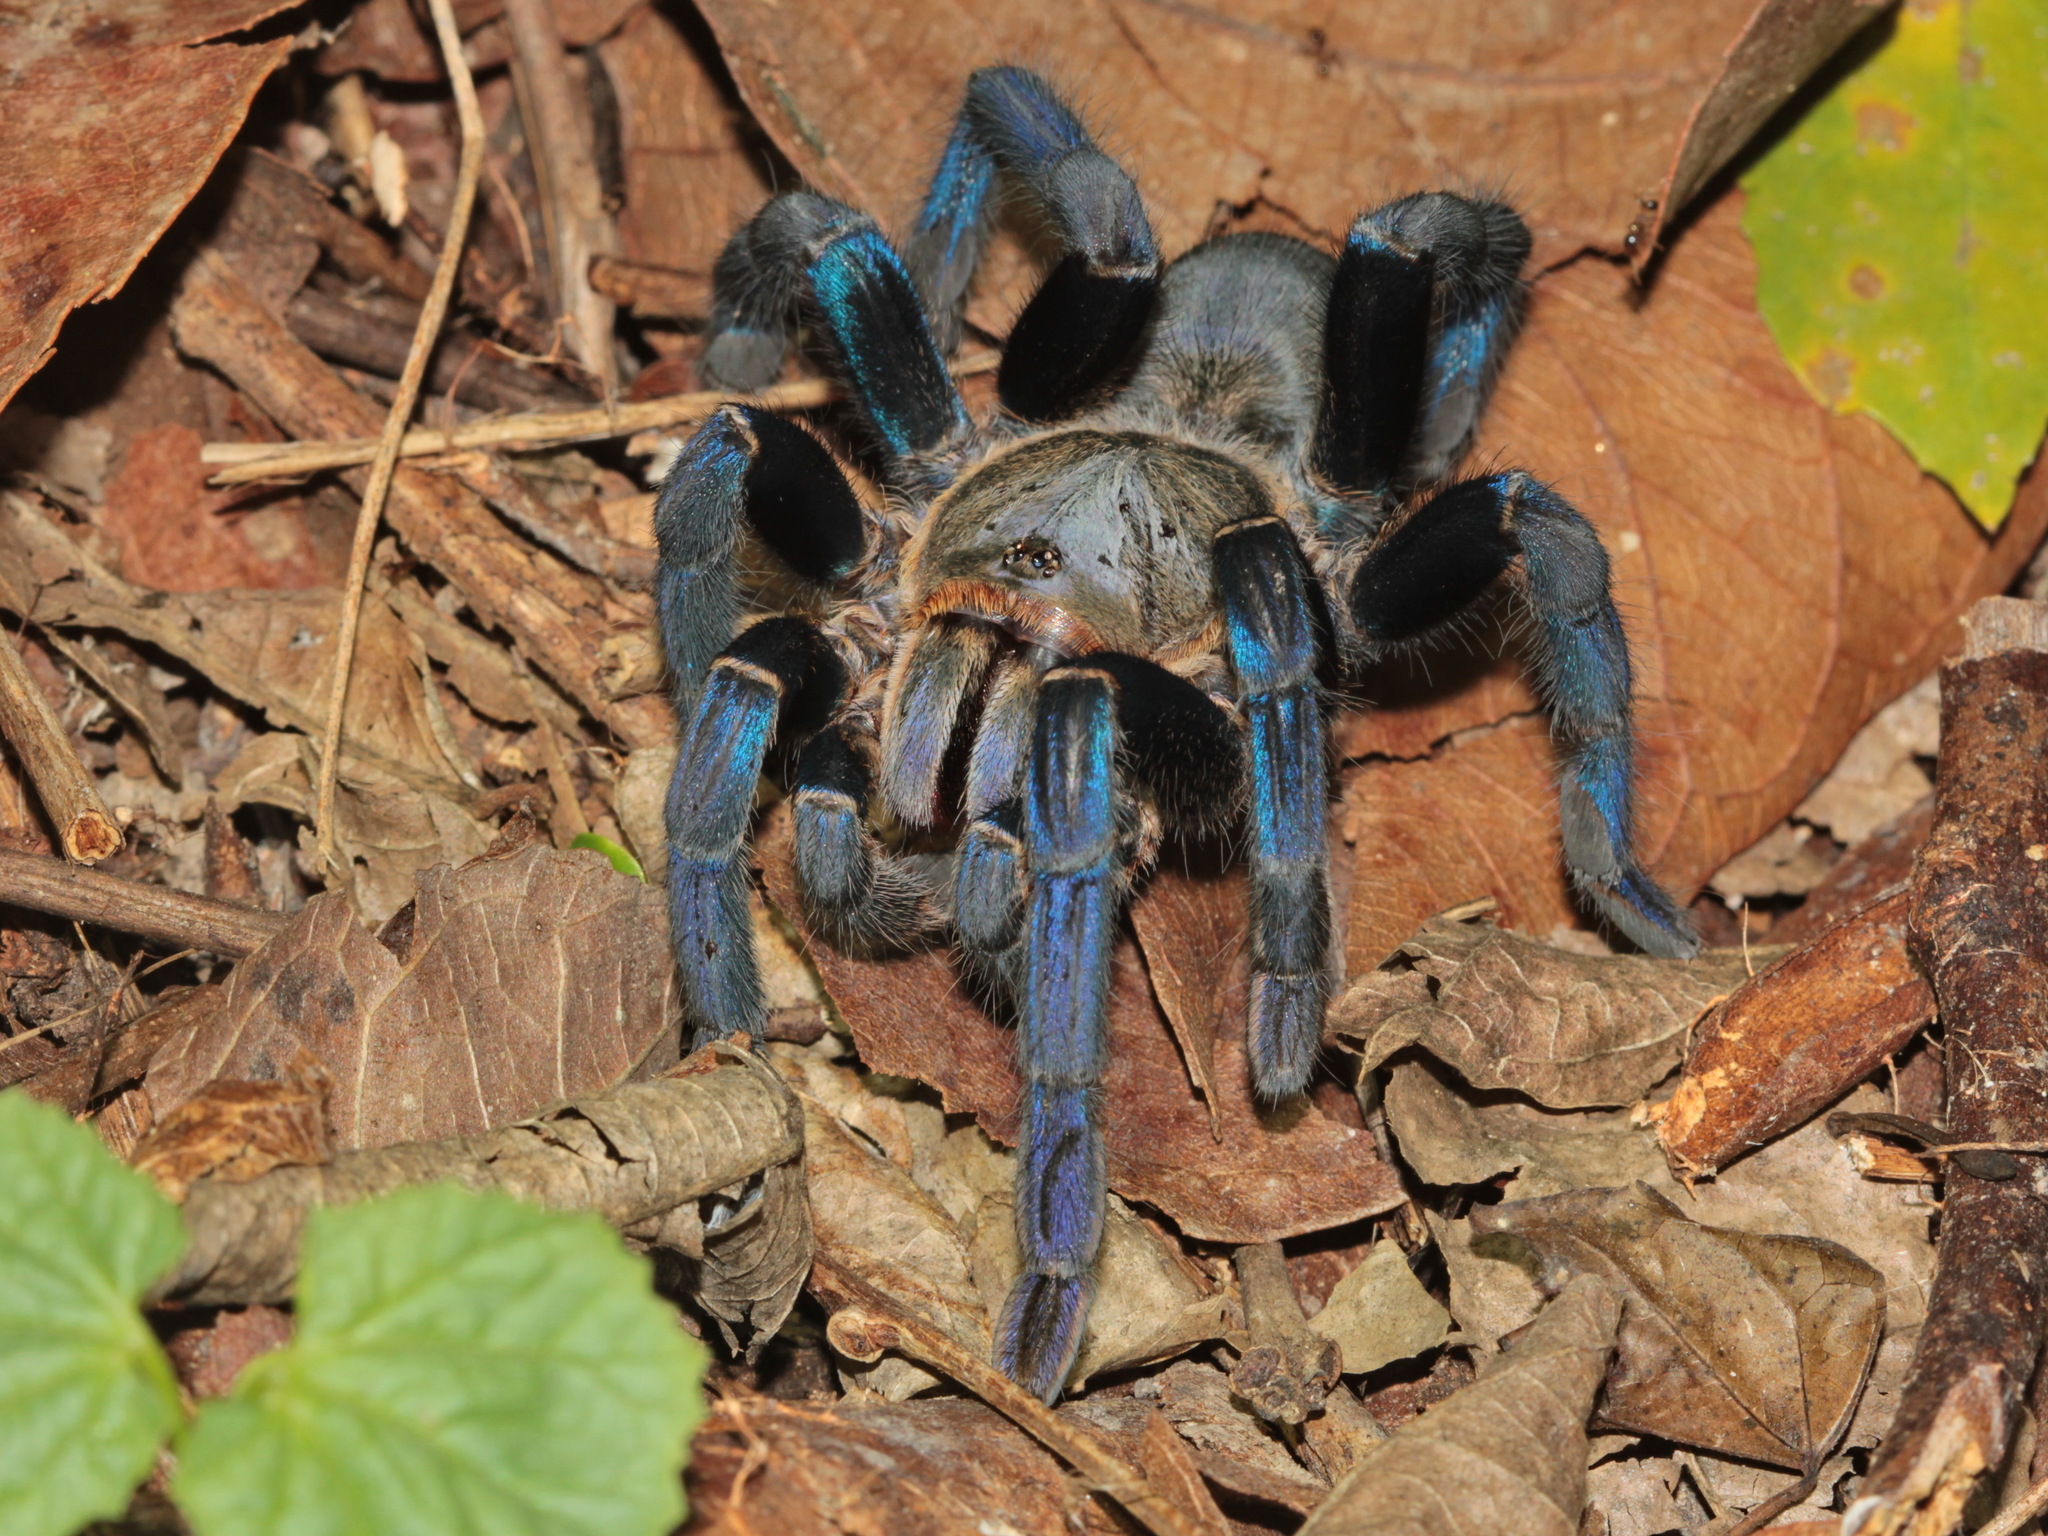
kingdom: Animalia
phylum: Arthropoda
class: Arachnida
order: Araneae
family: Theraphosidae
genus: Cyriopagopus
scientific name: Cyriopagopus lividus
